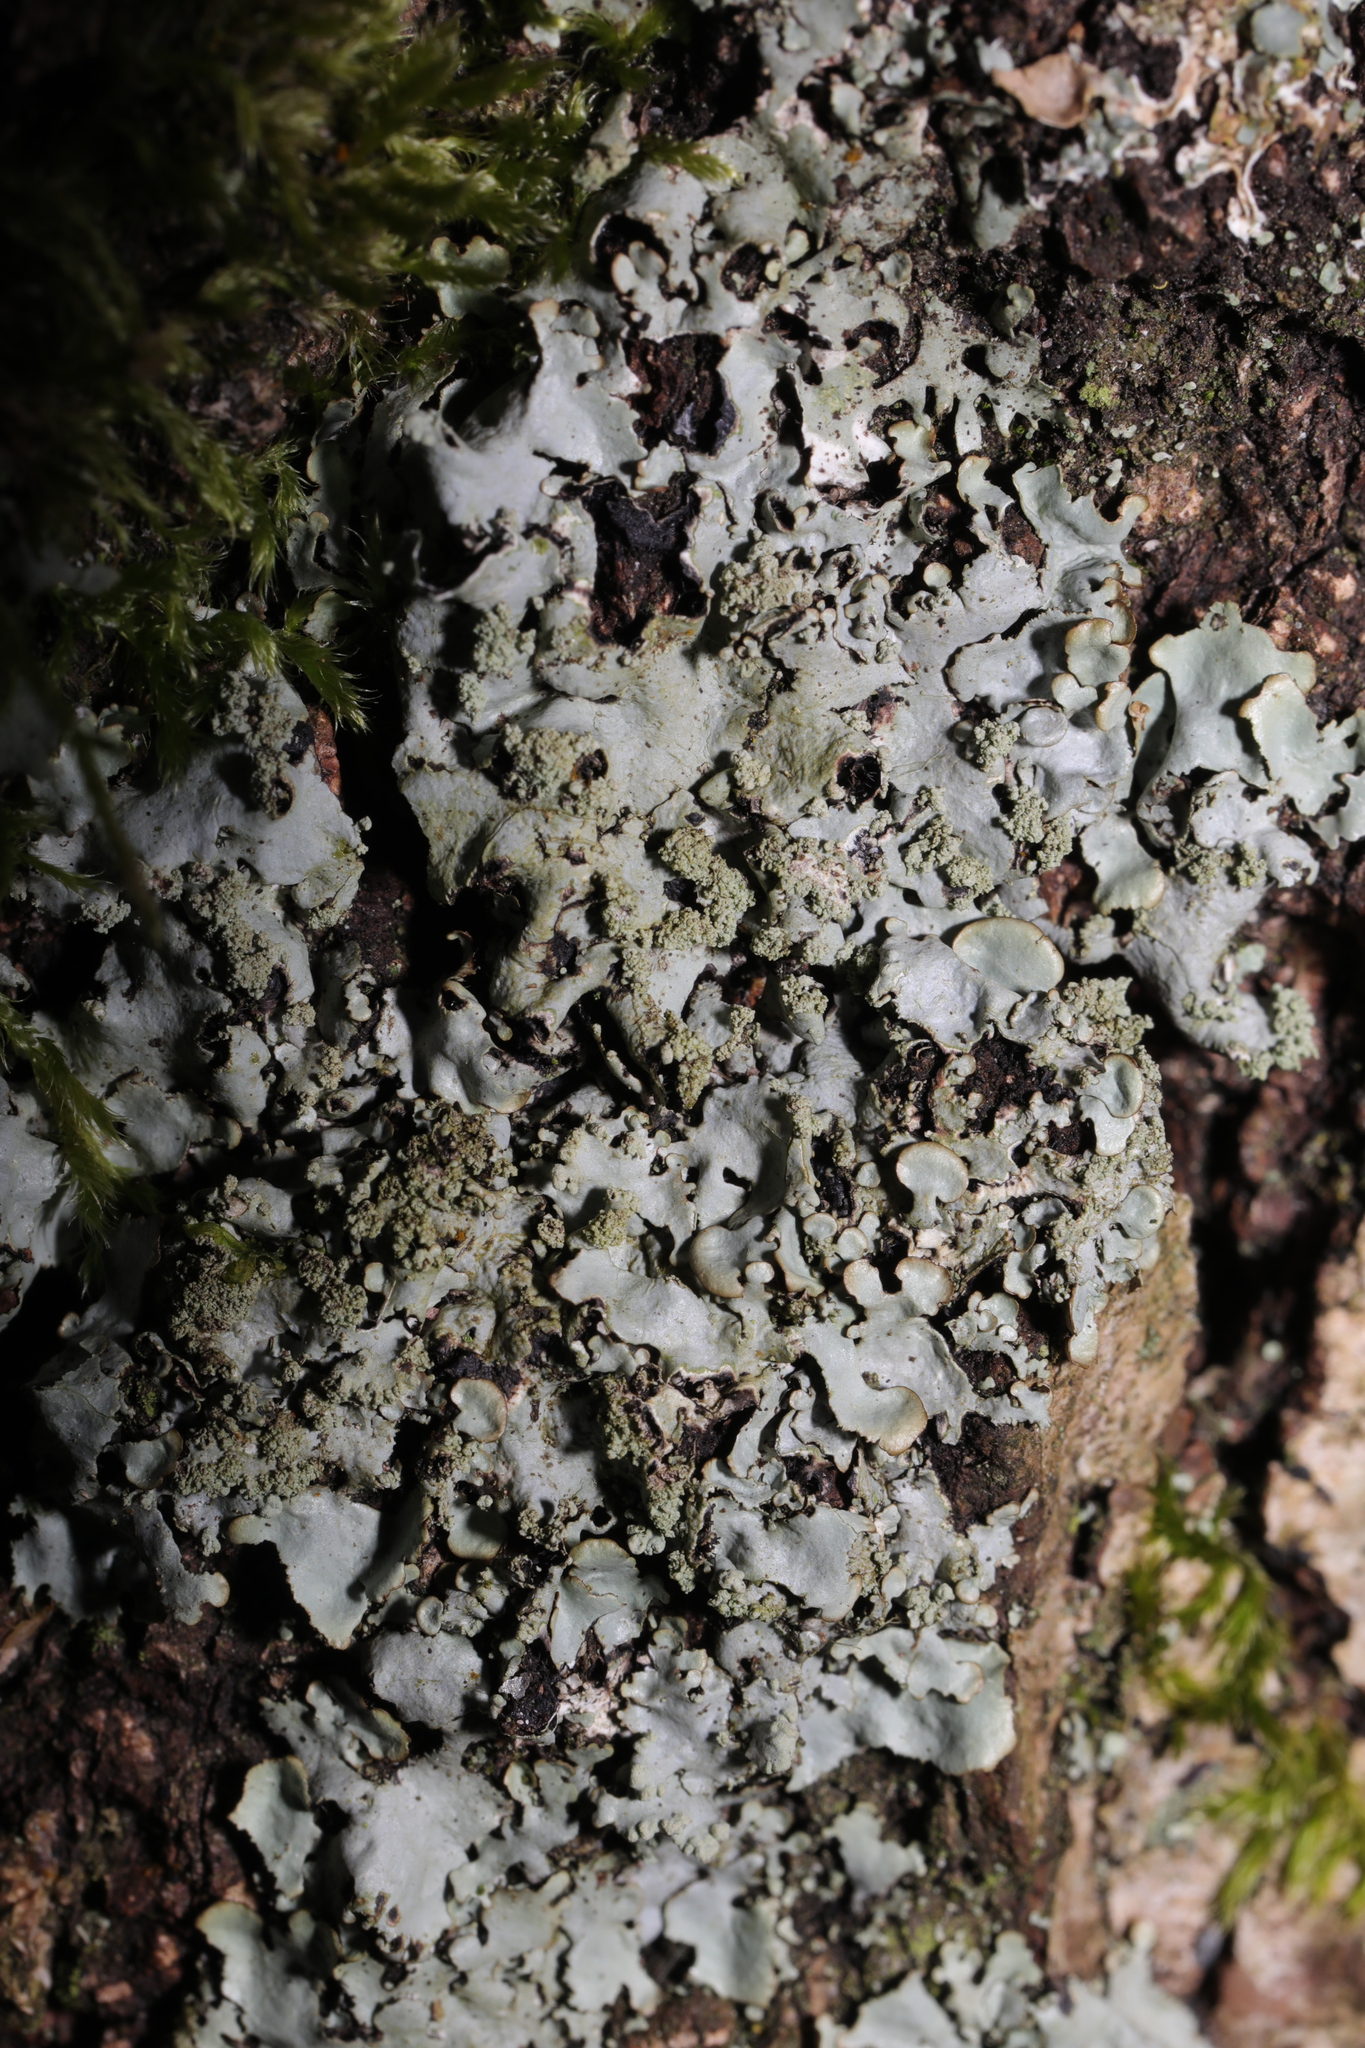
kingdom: Fungi
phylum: Ascomycota
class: Lecanoromycetes
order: Lecanorales
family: Parmeliaceae
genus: Hypotrachyna
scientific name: Hypotrachyna afrorevoluta
